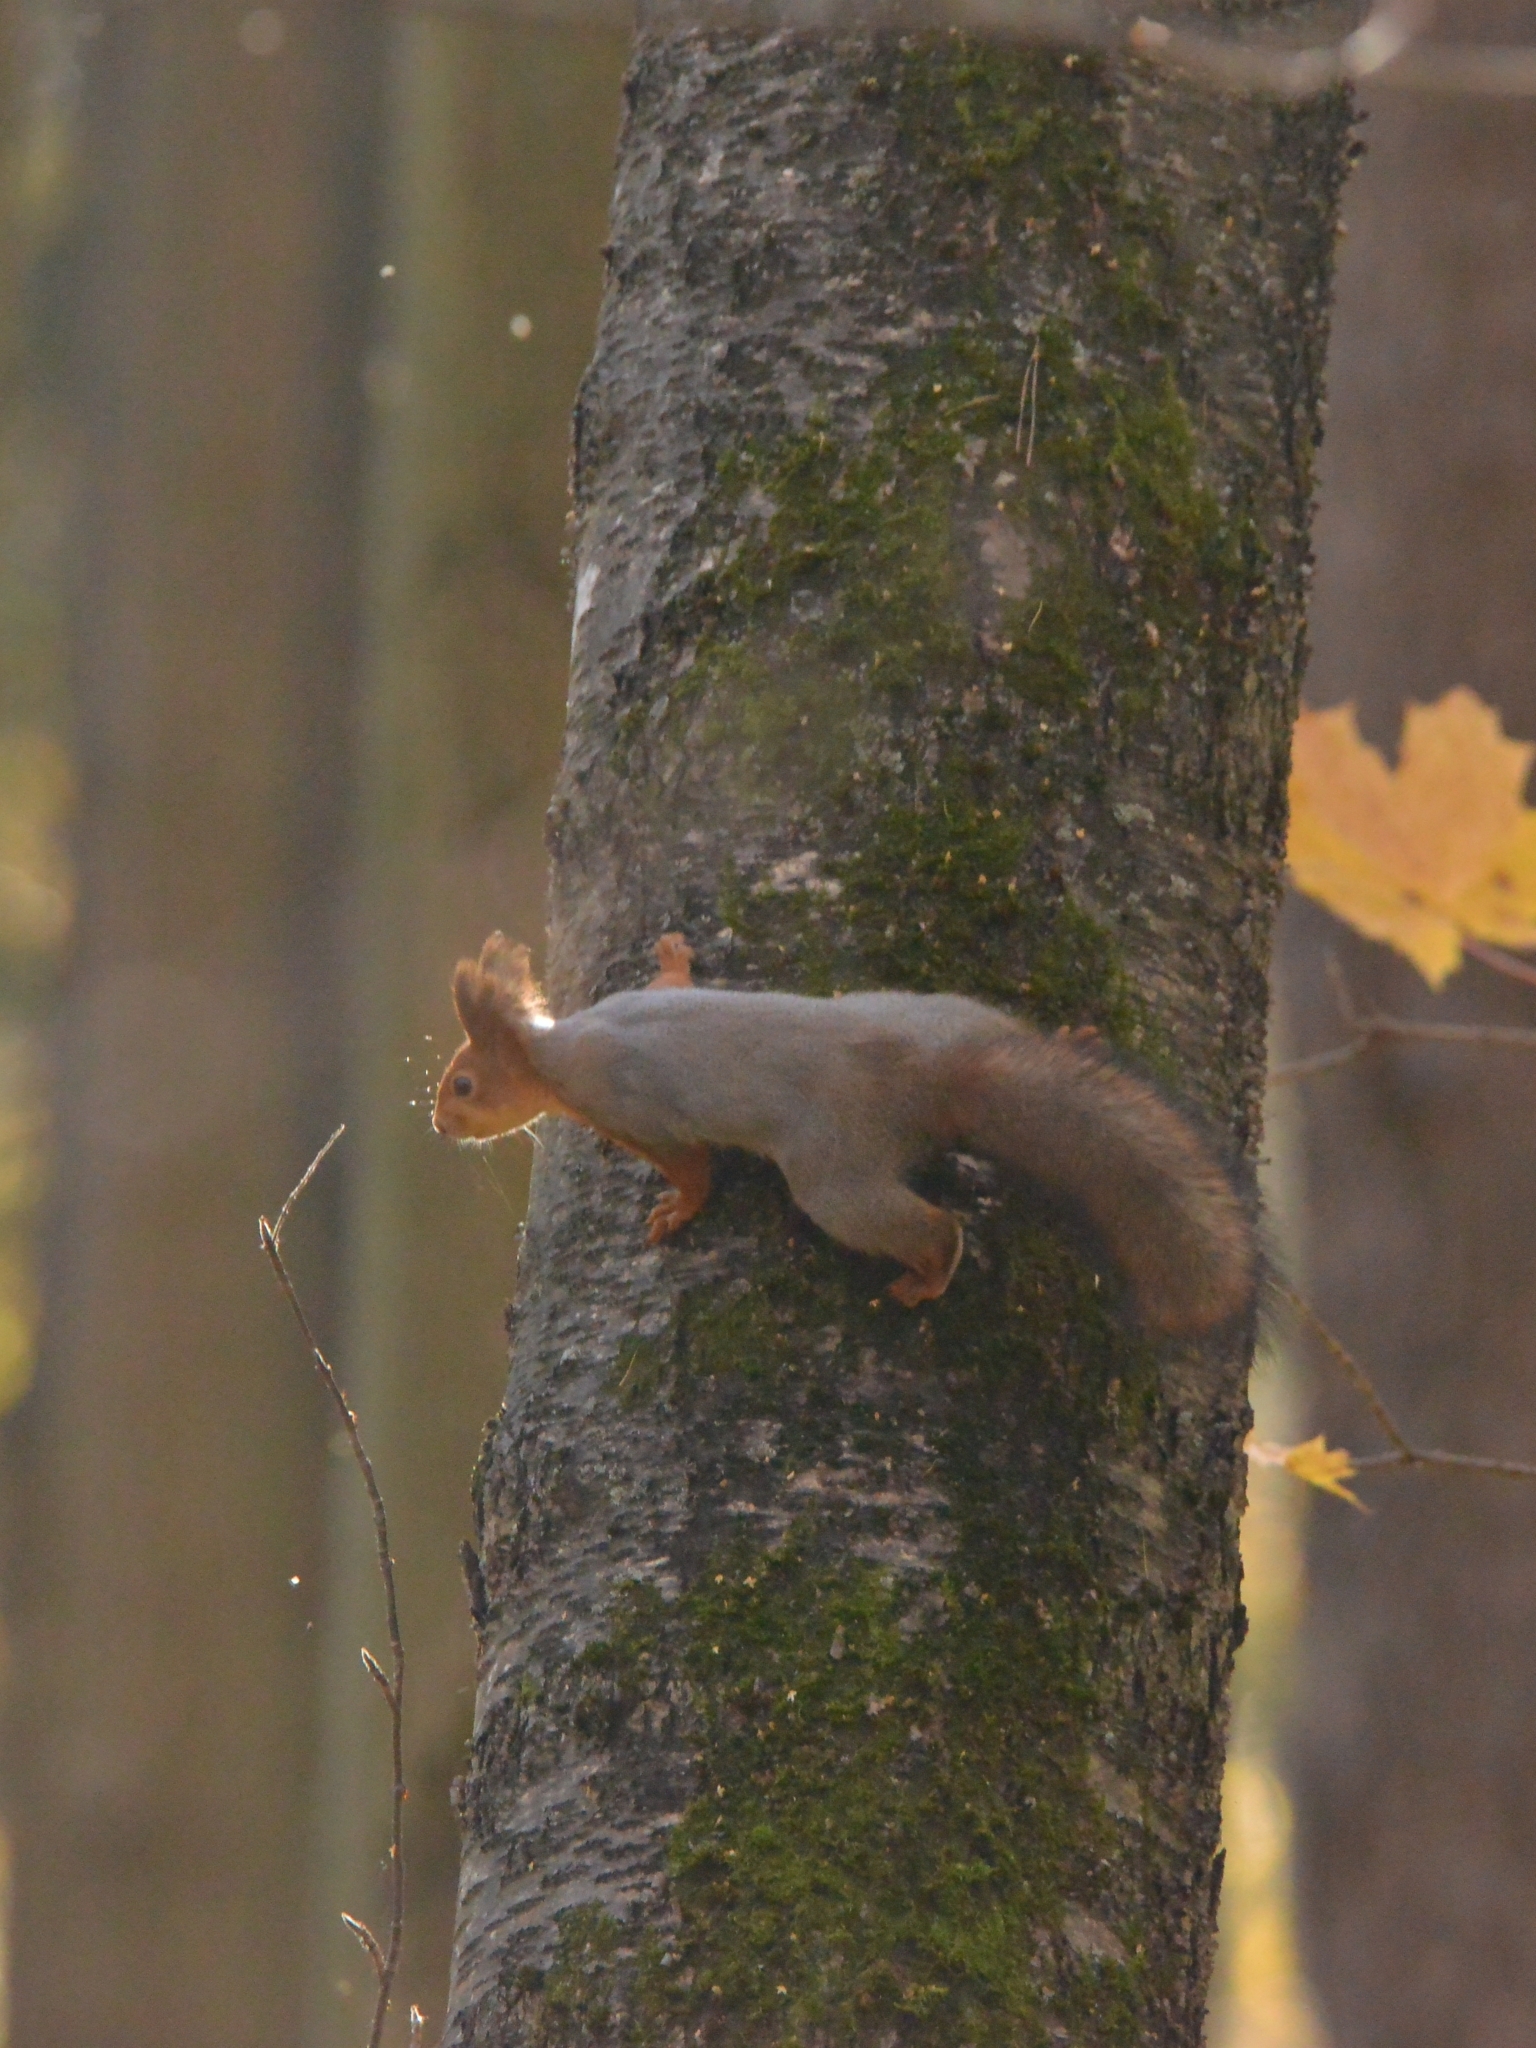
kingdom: Animalia
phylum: Chordata
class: Mammalia
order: Rodentia
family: Sciuridae
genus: Sciurus
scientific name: Sciurus vulgaris
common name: Eurasian red squirrel
